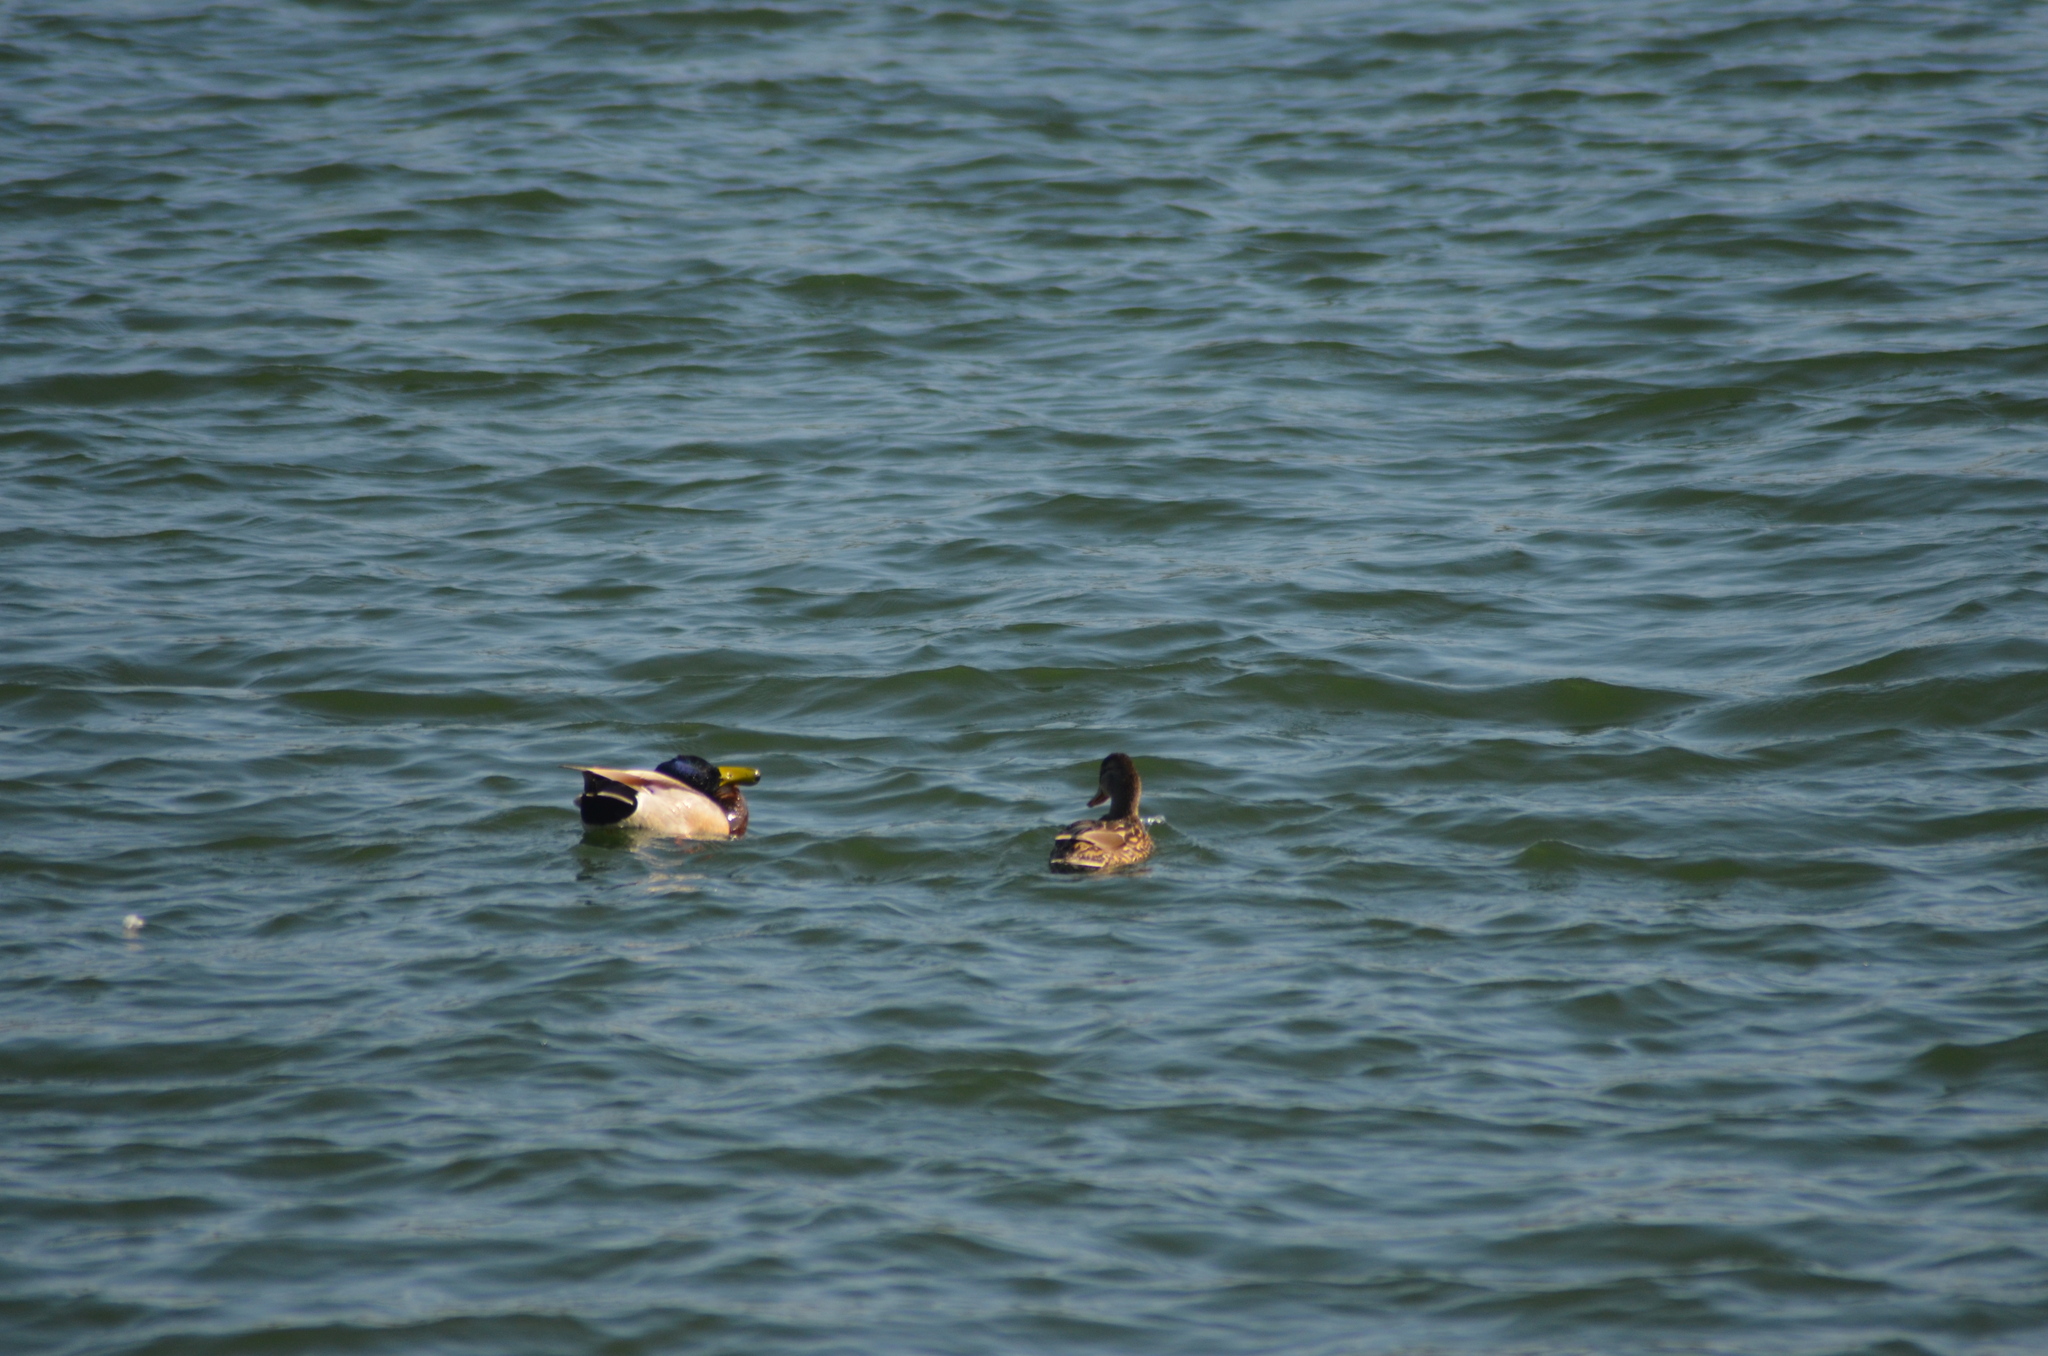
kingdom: Animalia
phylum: Chordata
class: Aves
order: Anseriformes
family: Anatidae
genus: Anas
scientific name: Anas platyrhynchos
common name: Mallard
